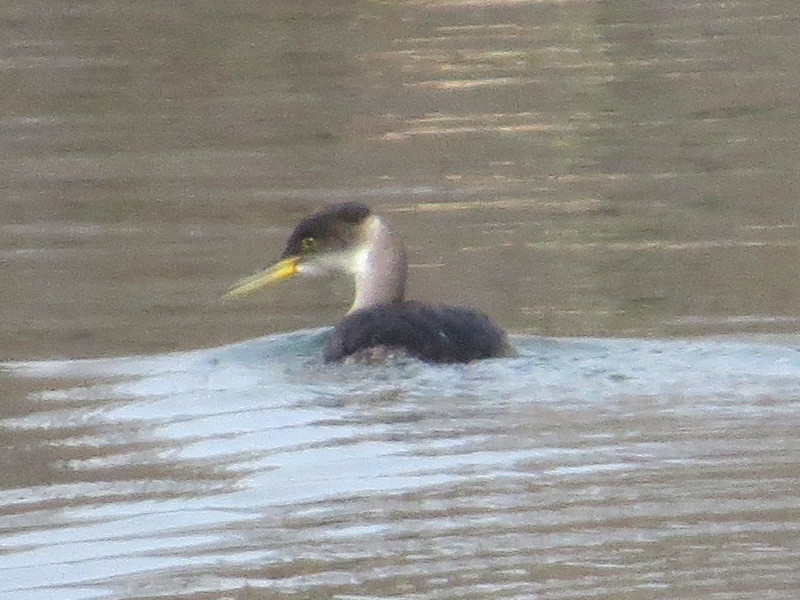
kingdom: Animalia
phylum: Chordata
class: Aves
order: Podicipediformes
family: Podicipedidae
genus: Podiceps
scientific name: Podiceps grisegena
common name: Red-necked grebe
